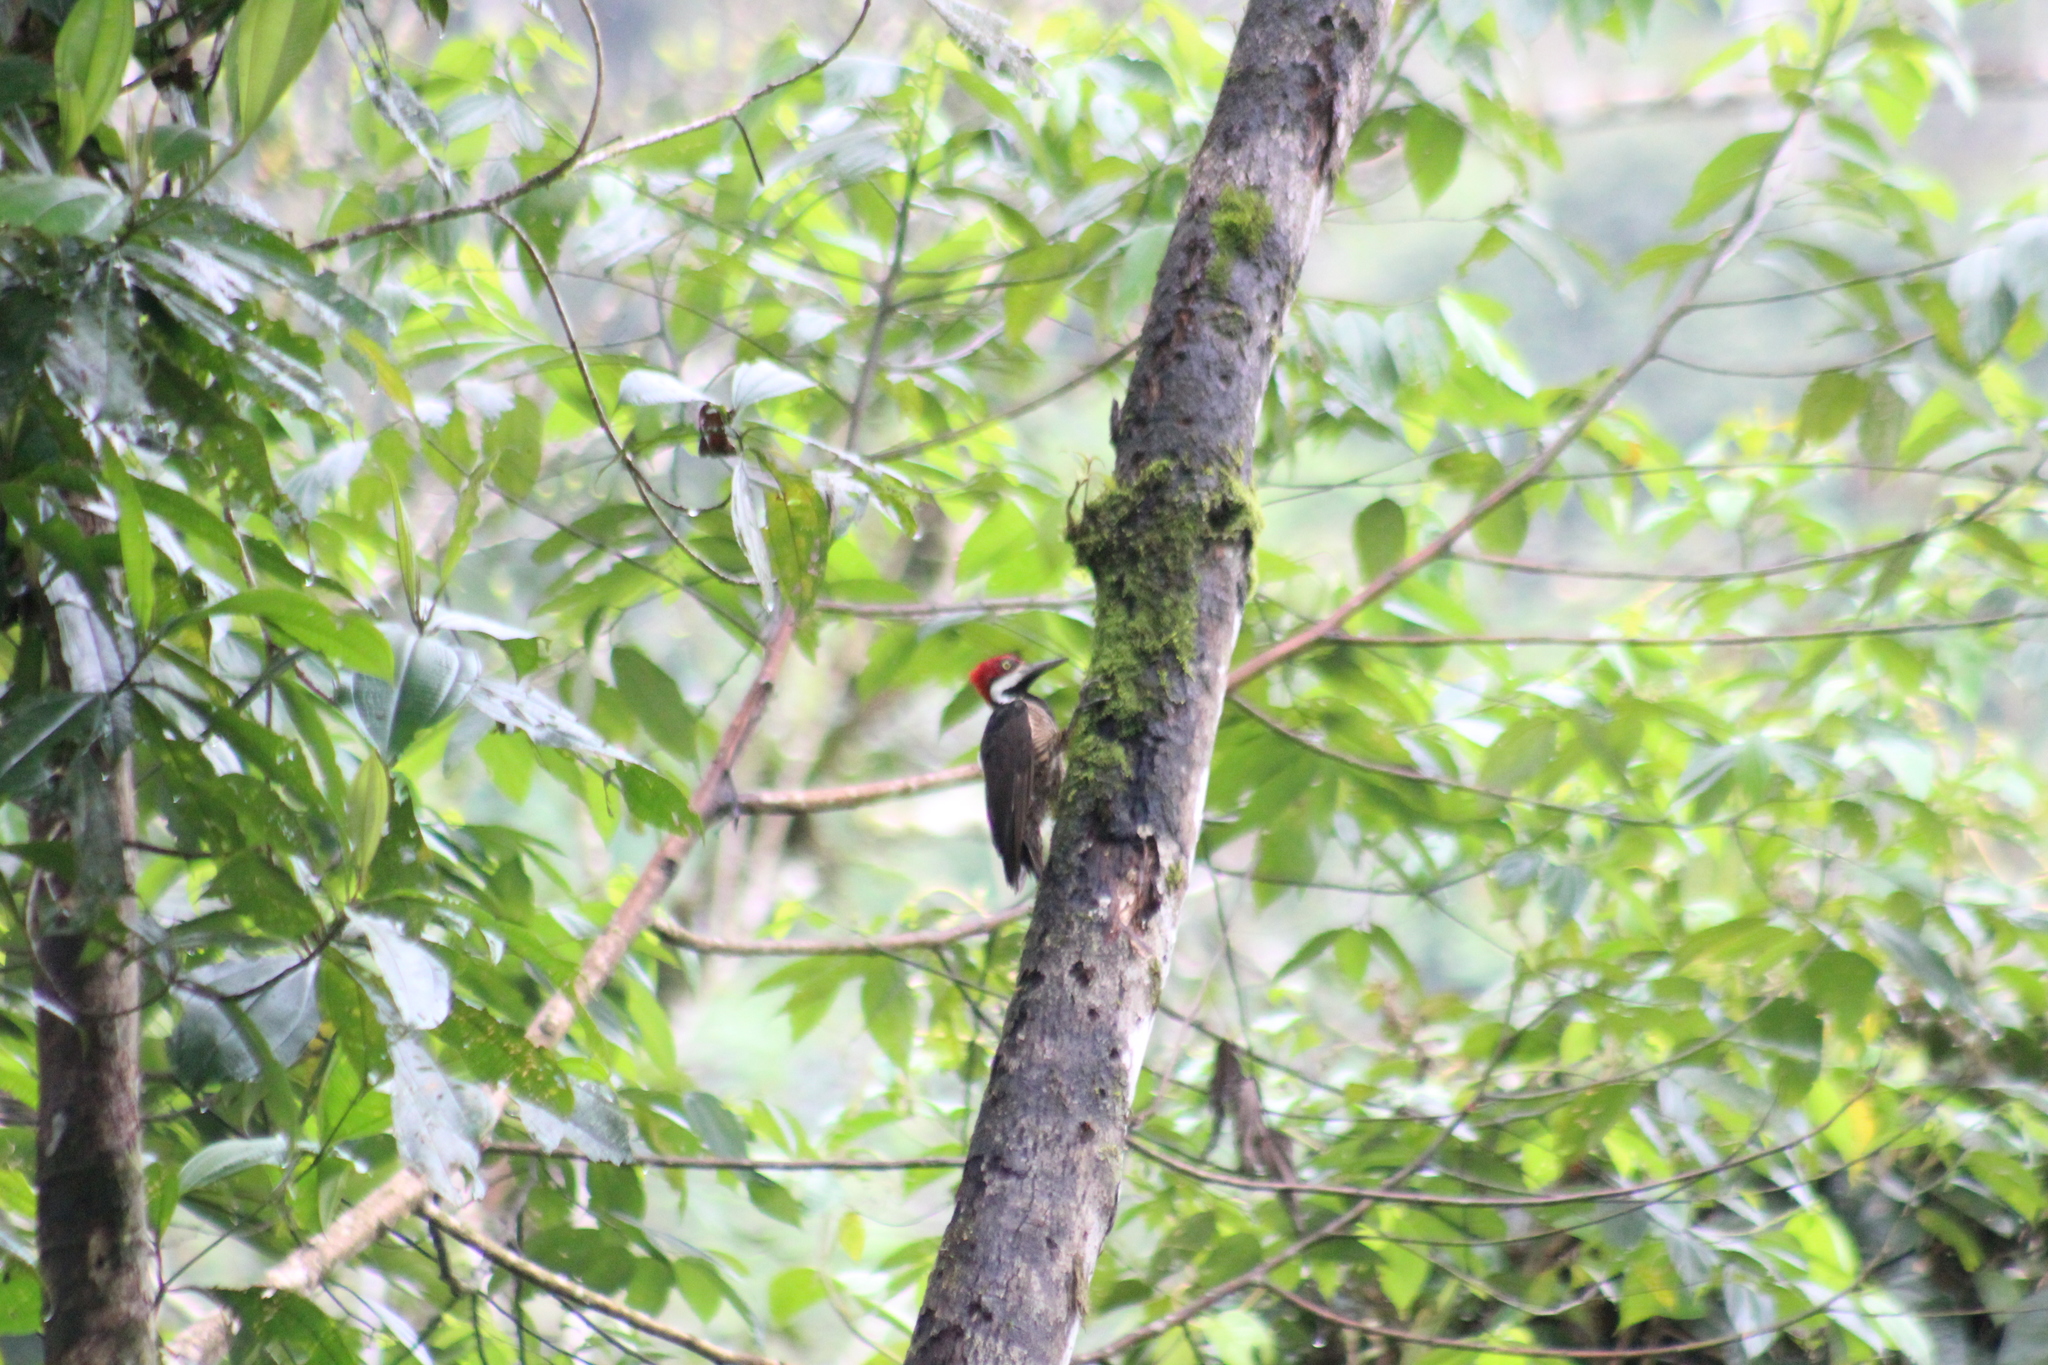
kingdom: Animalia
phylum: Chordata
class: Aves
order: Piciformes
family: Picidae
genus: Campephilus
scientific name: Campephilus gayaquilensis
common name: Guayaquil woodpecker
